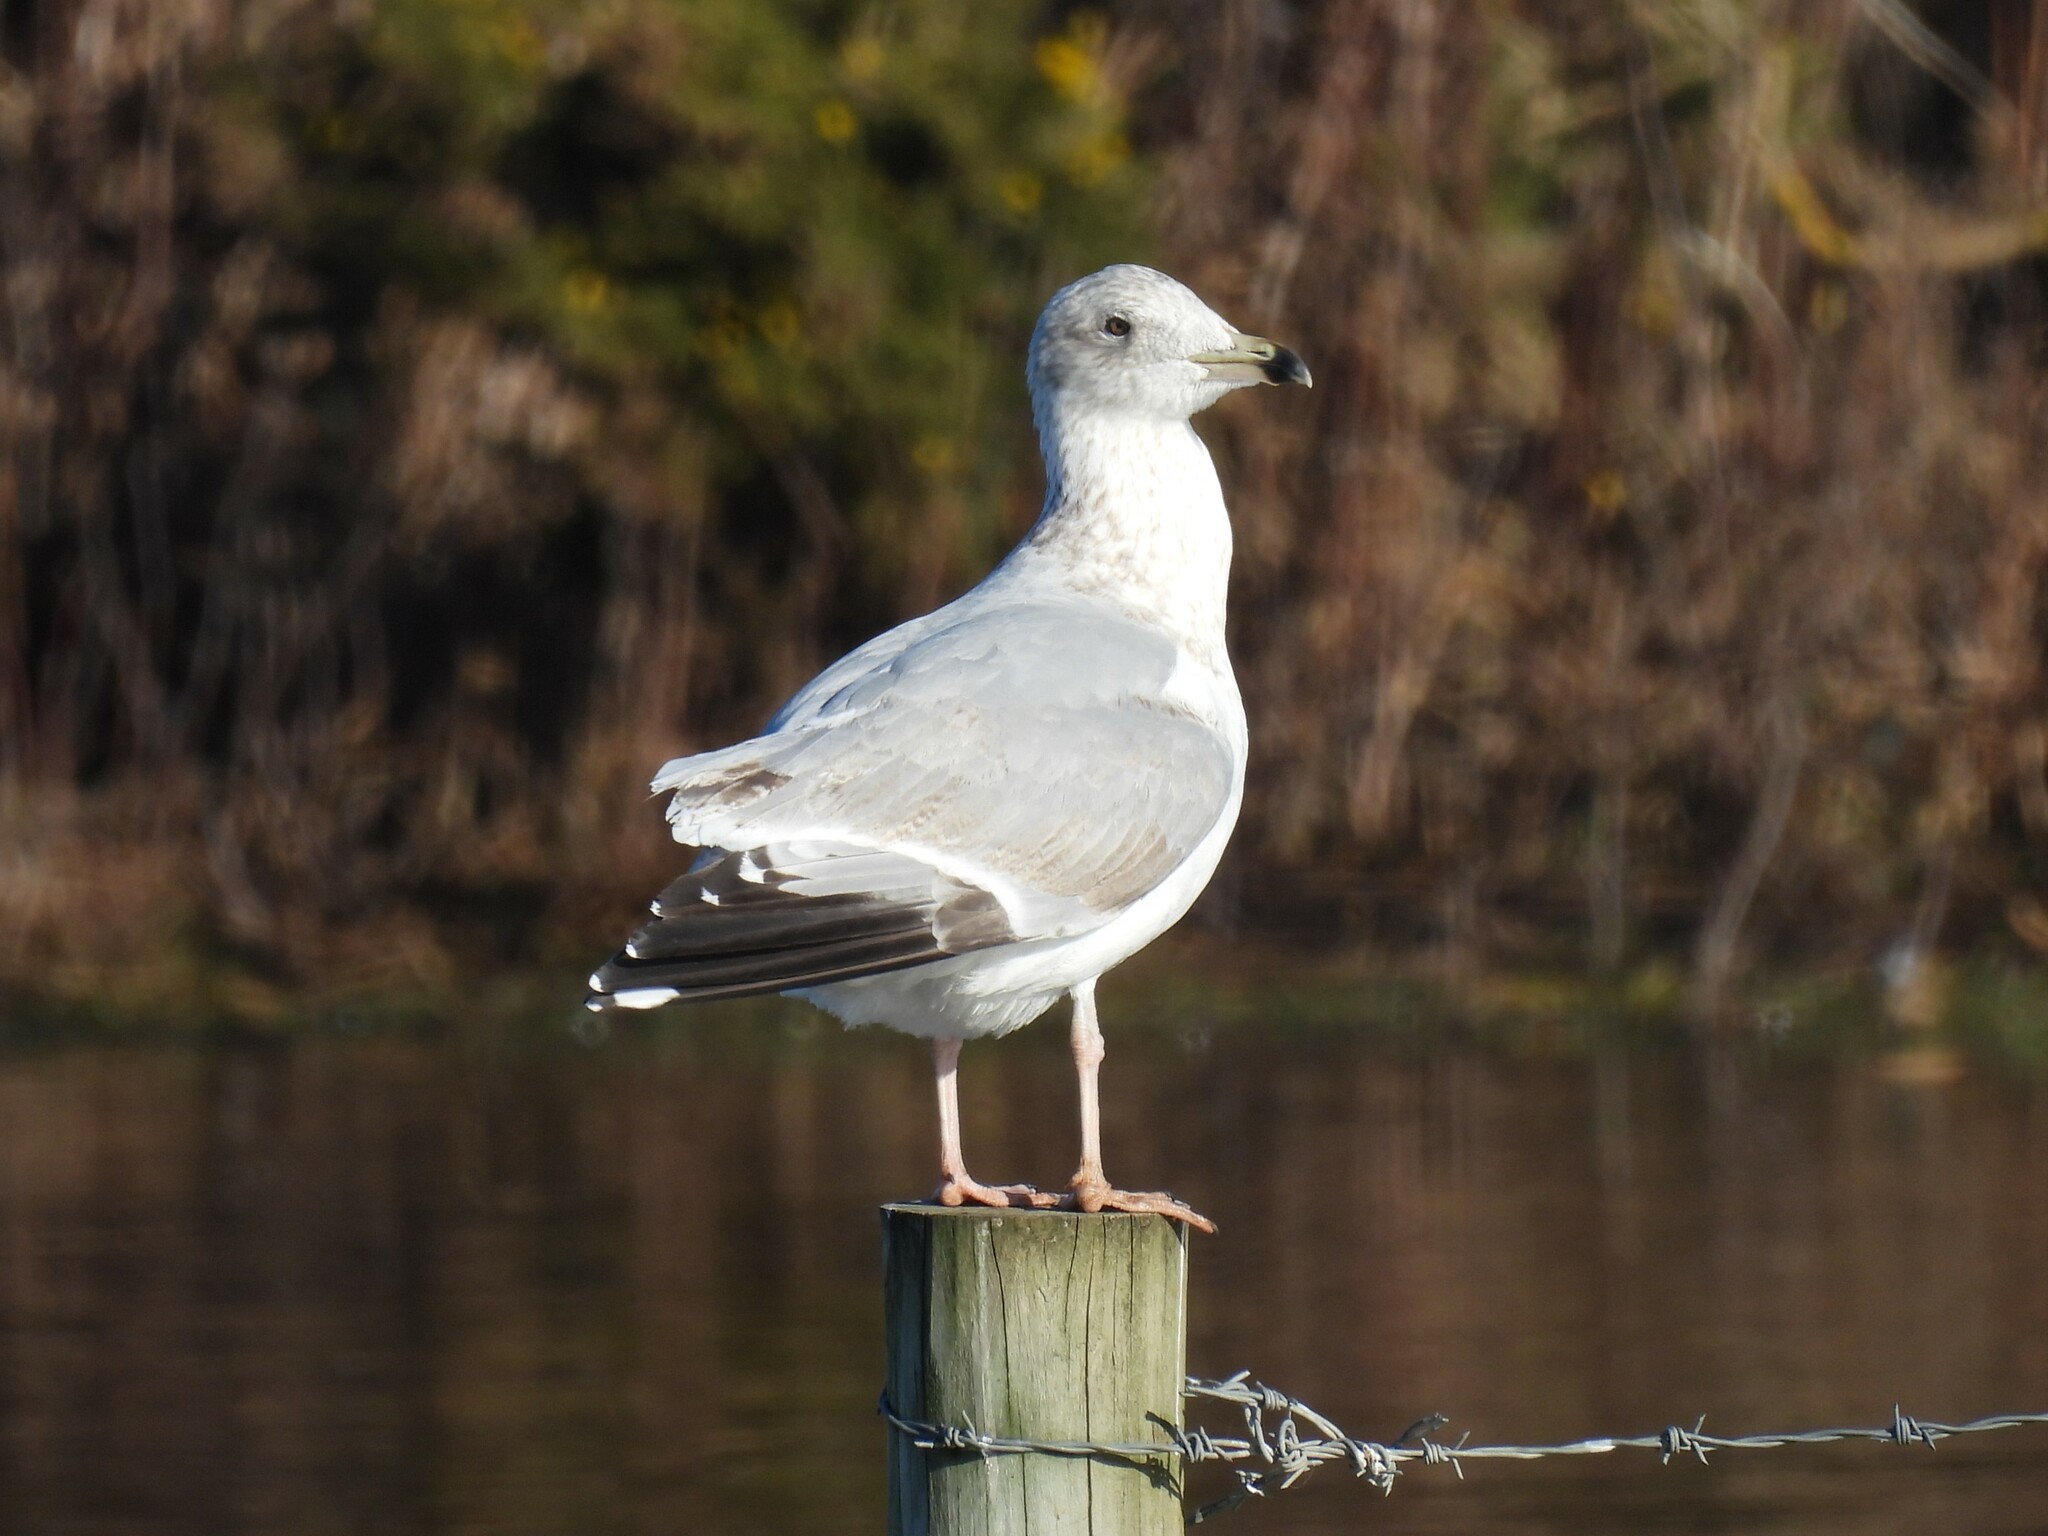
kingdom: Animalia
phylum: Chordata
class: Aves
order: Charadriiformes
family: Laridae
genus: Larus
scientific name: Larus argentatus
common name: Herring gull
